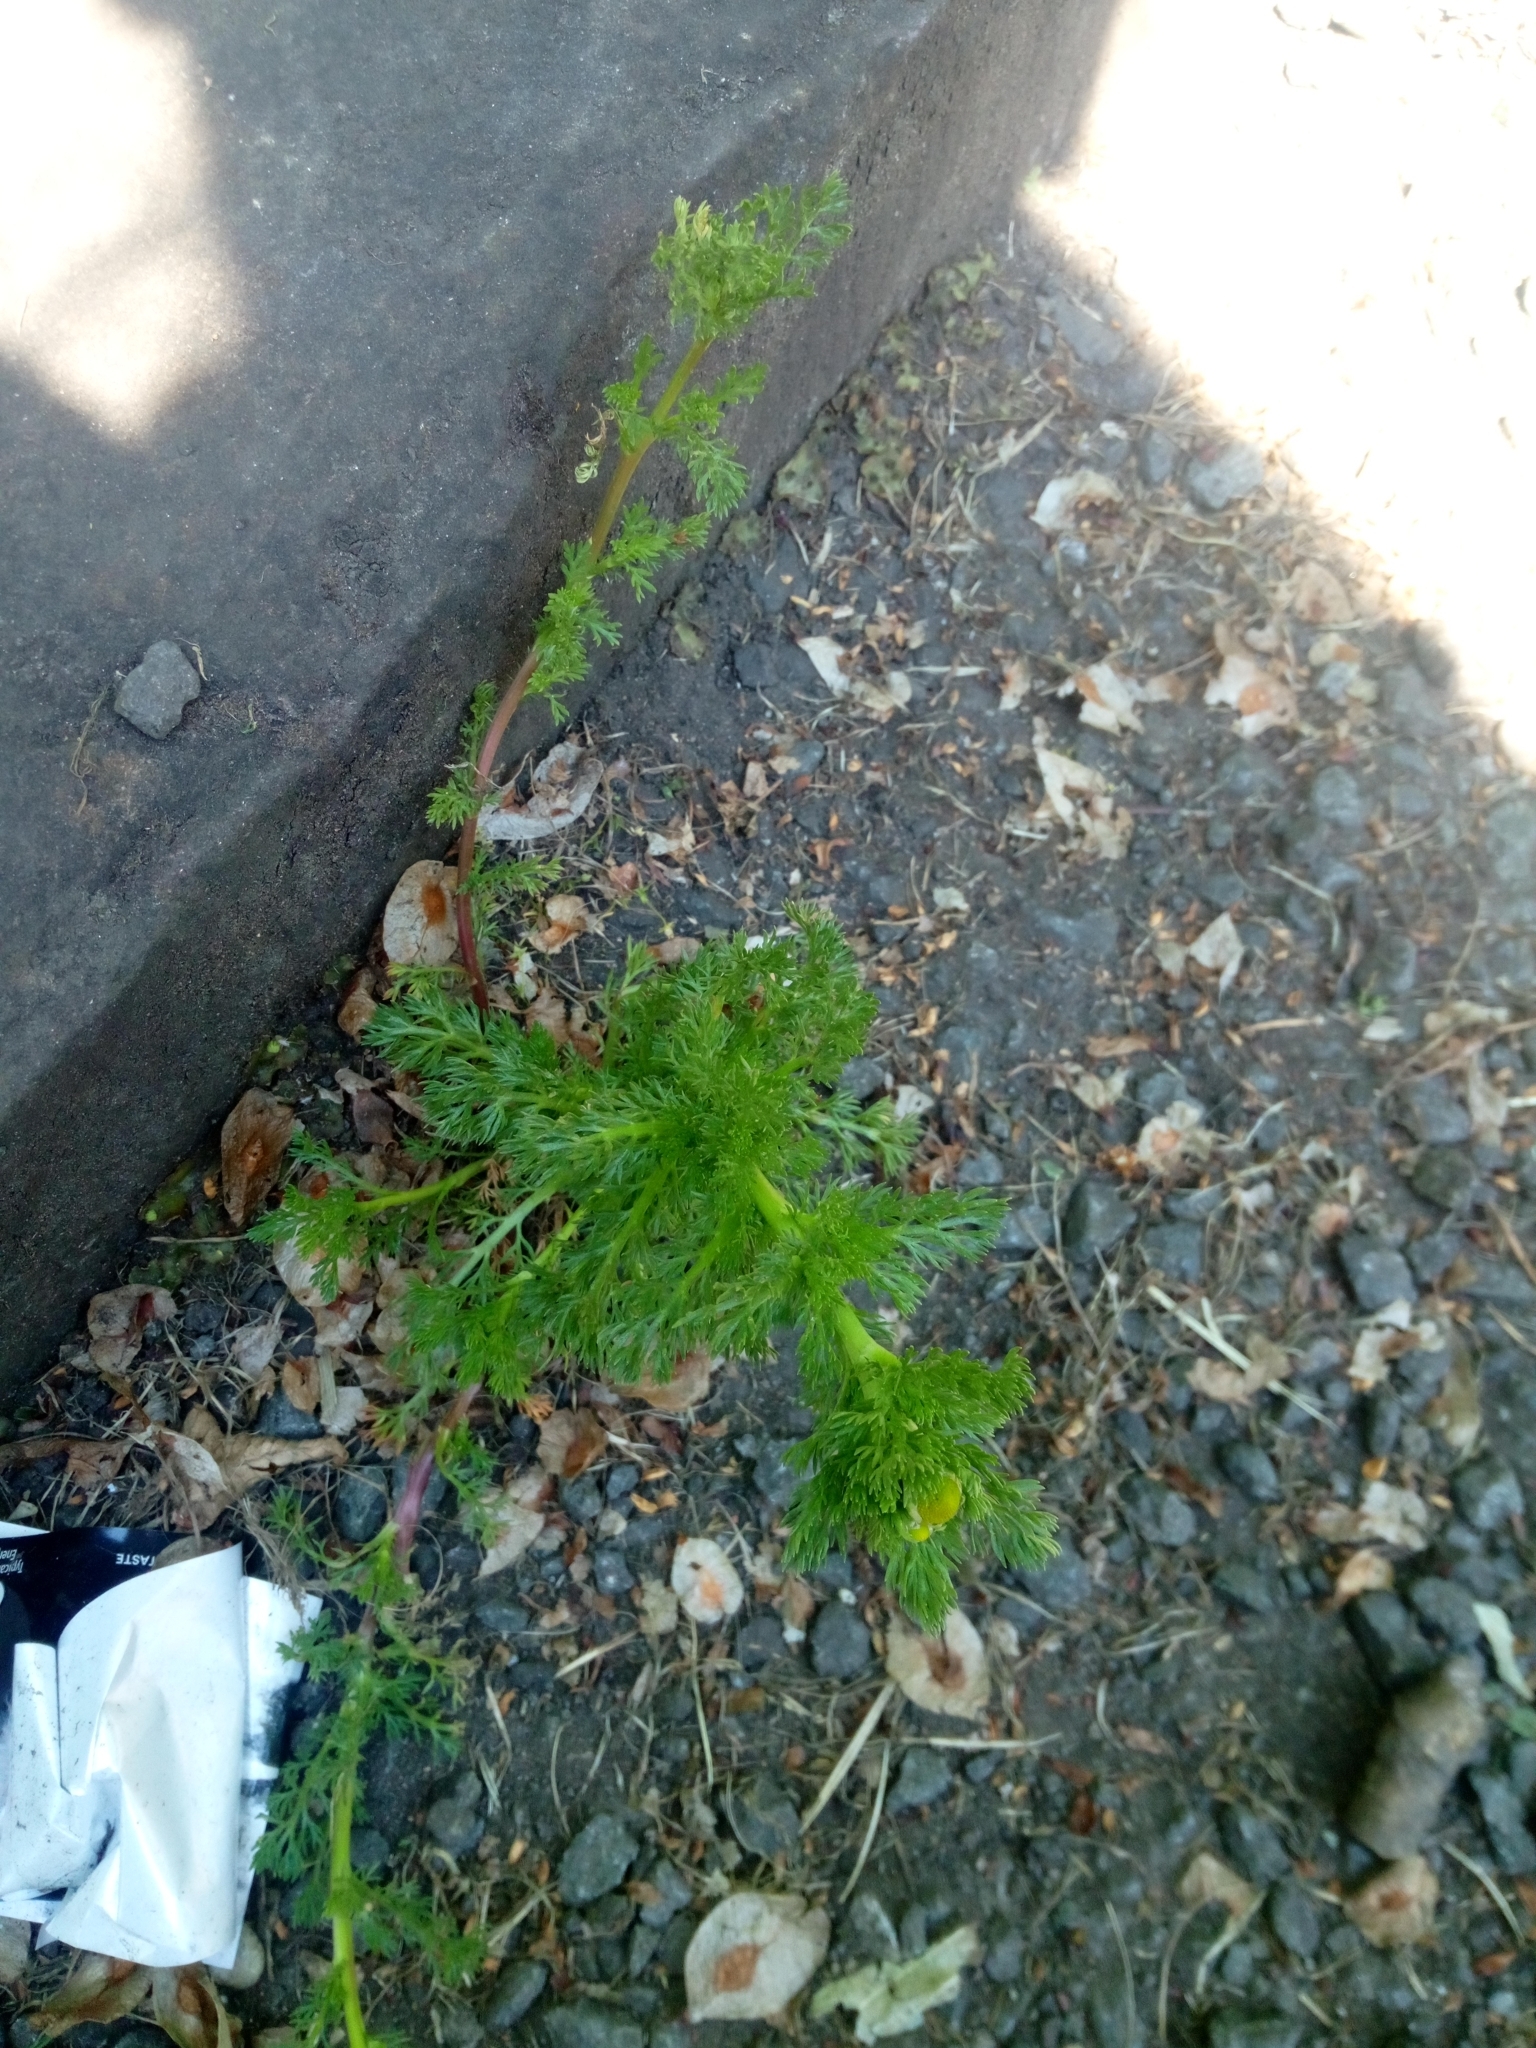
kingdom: Plantae
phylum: Tracheophyta
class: Magnoliopsida
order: Asterales
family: Asteraceae
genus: Matricaria
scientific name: Matricaria discoidea
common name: Disc mayweed
